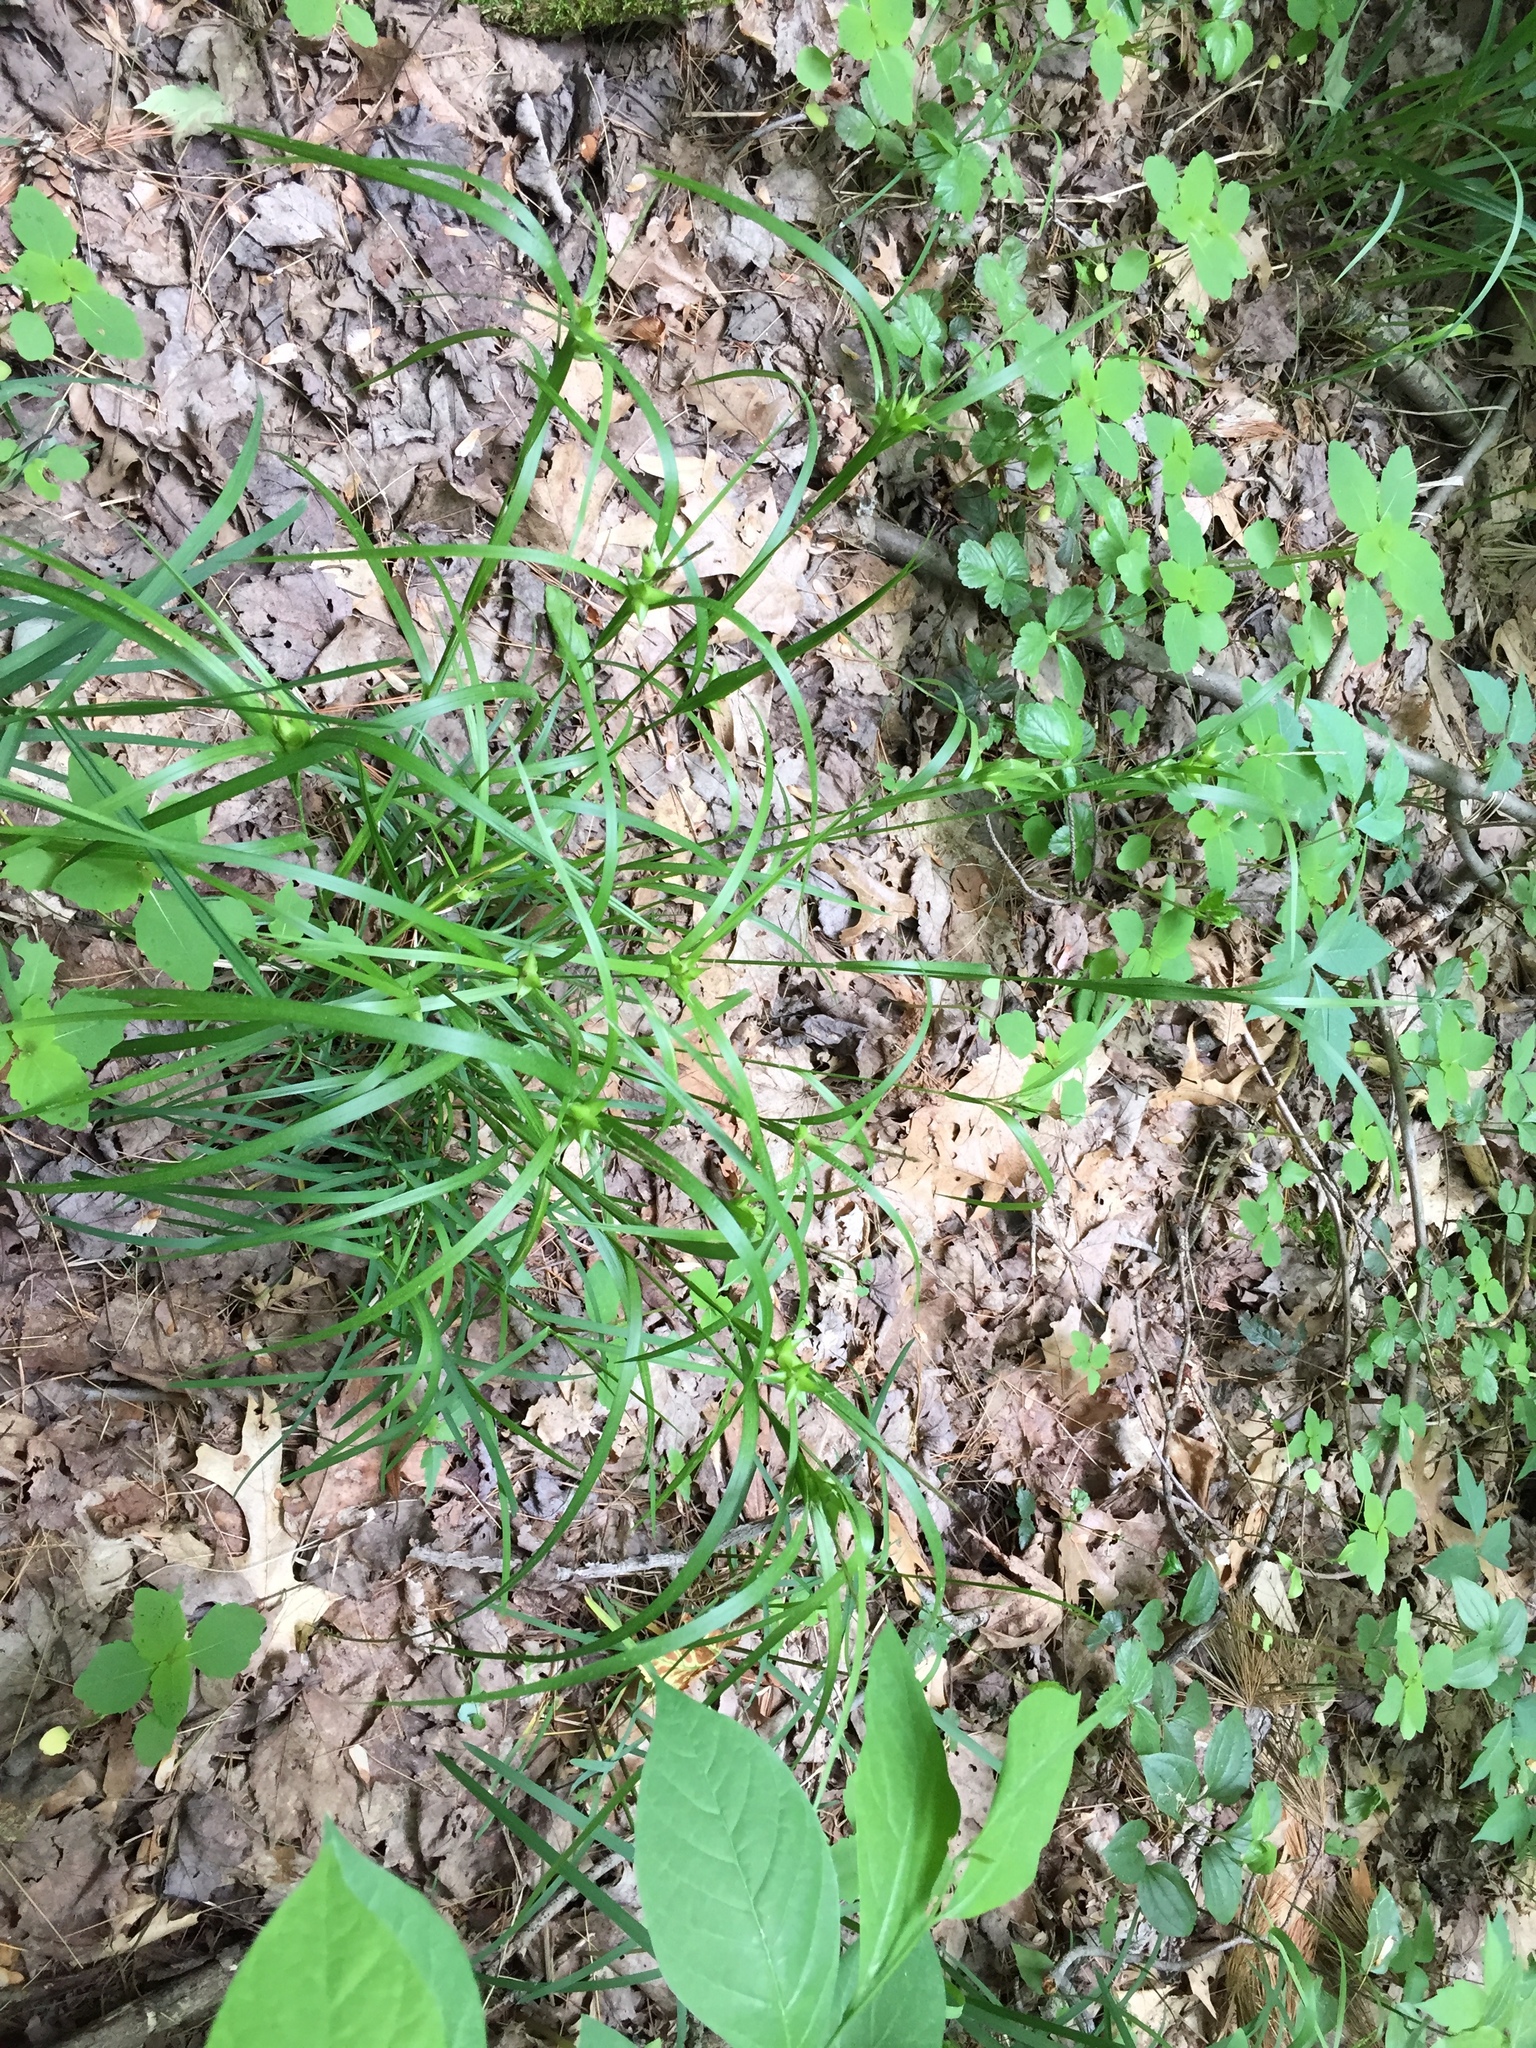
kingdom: Plantae
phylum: Tracheophyta
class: Liliopsida
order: Poales
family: Cyperaceae
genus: Carex
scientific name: Carex intumescens
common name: Greater bladder sedge
